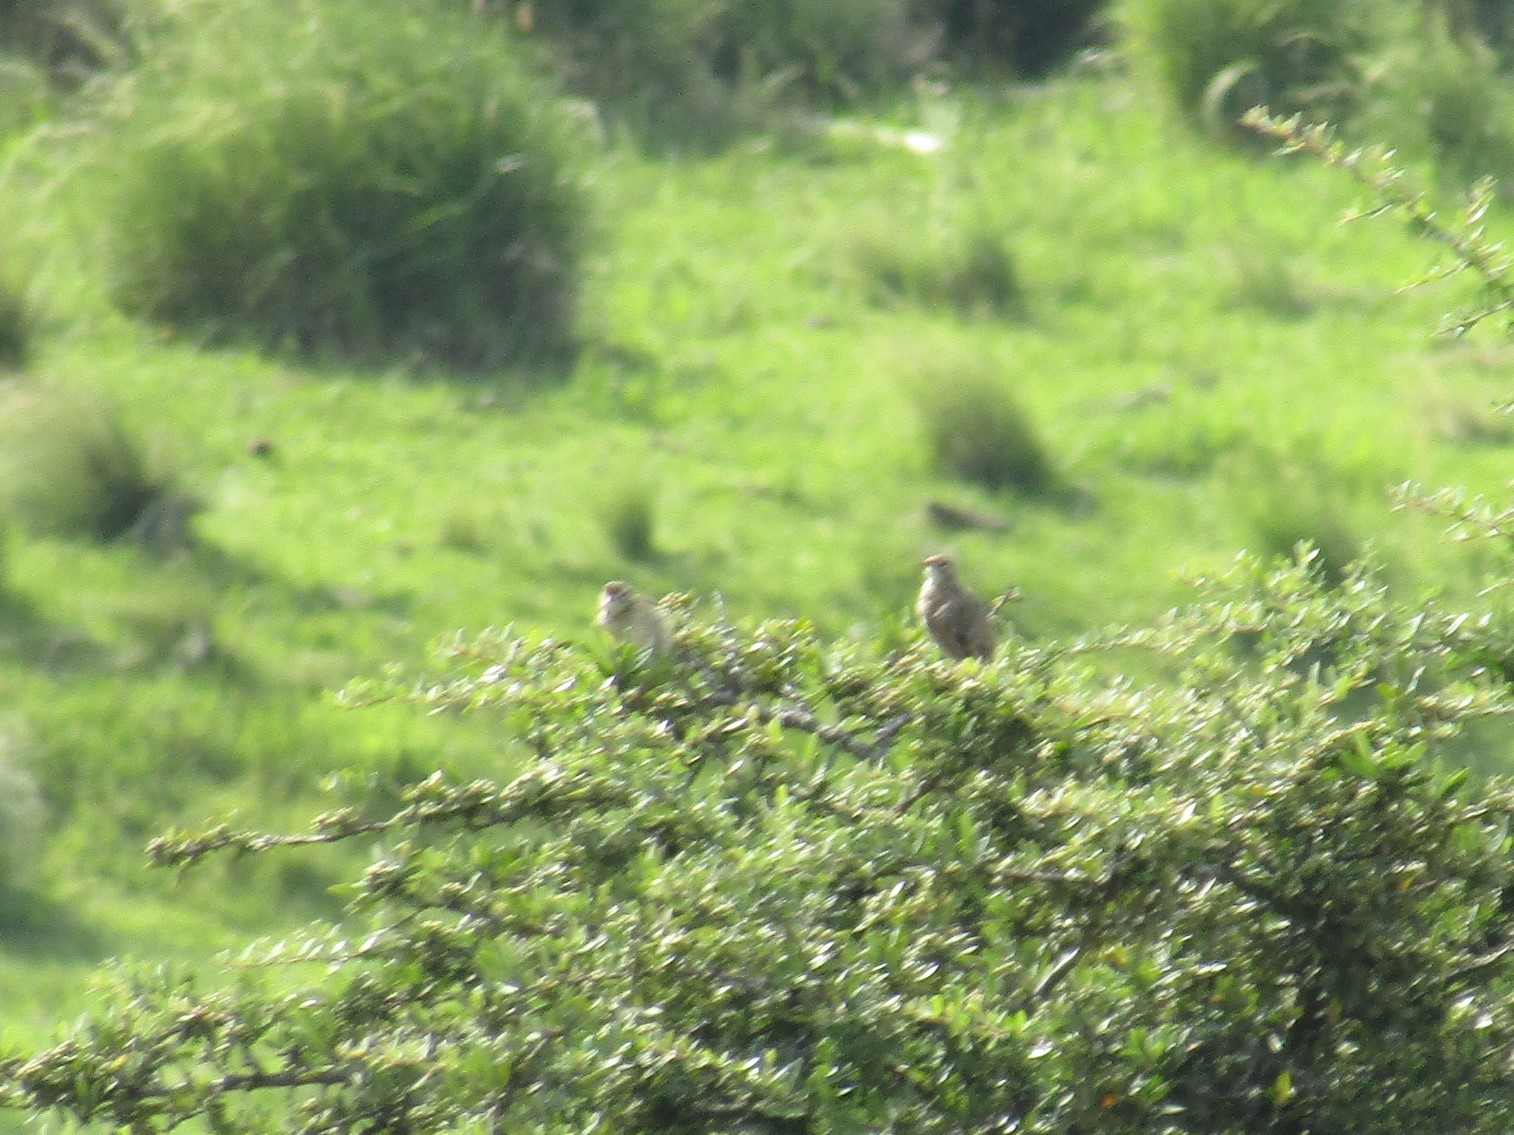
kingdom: Animalia
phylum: Chordata
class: Aves
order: Passeriformes
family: Furnariidae
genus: Anumbius
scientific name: Anumbius annumbi
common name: Firewood-gatherer
